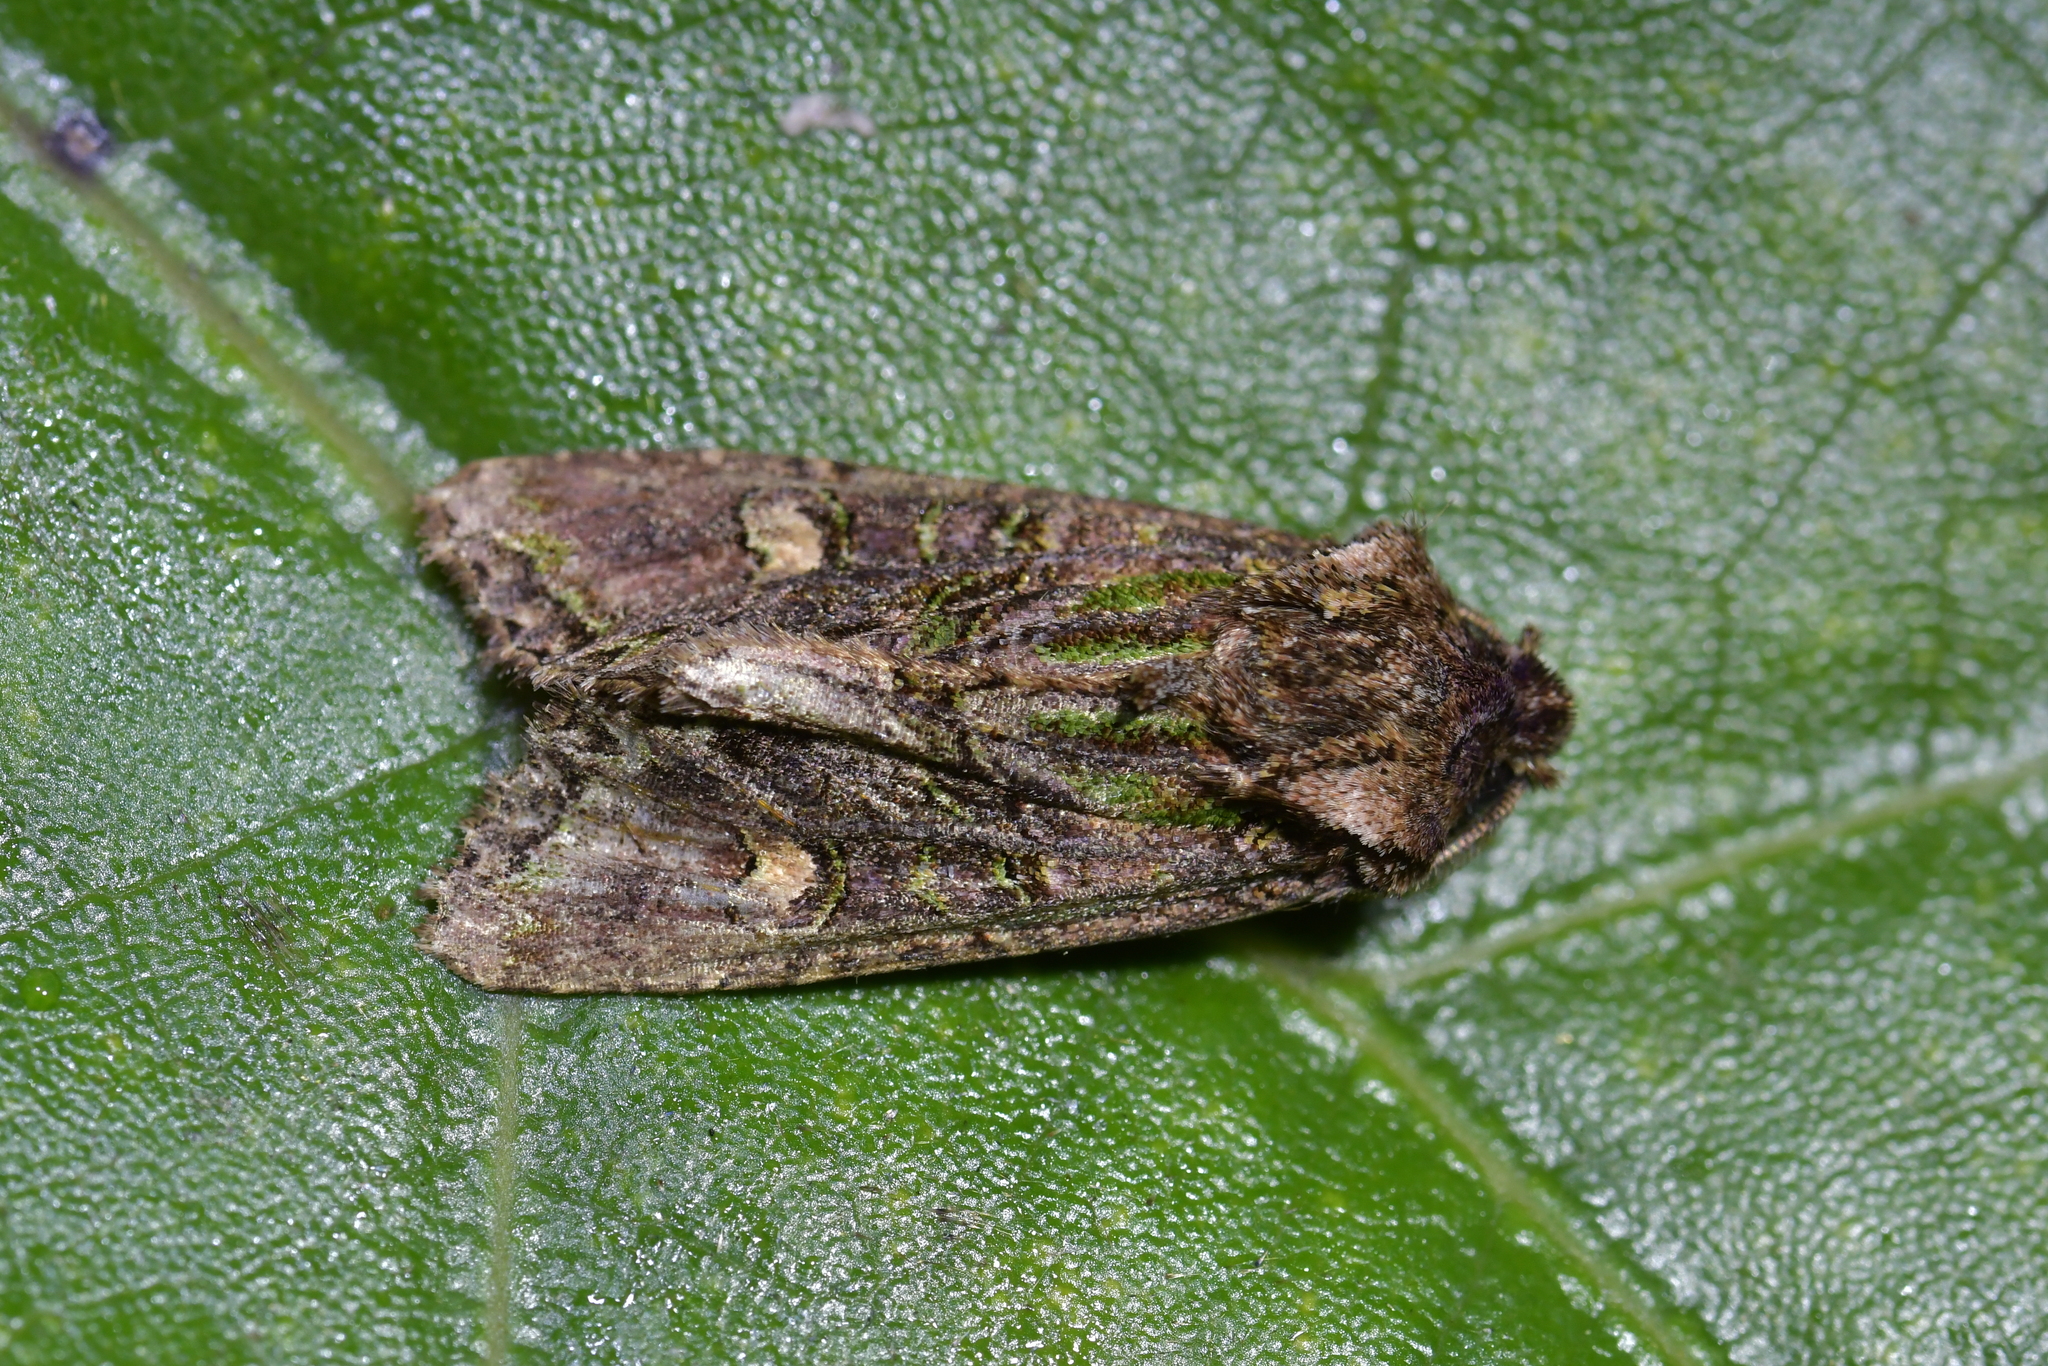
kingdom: Animalia
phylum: Arthropoda
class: Insecta
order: Lepidoptera
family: Noctuidae
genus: Ichneutica
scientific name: Ichneutica insignis
